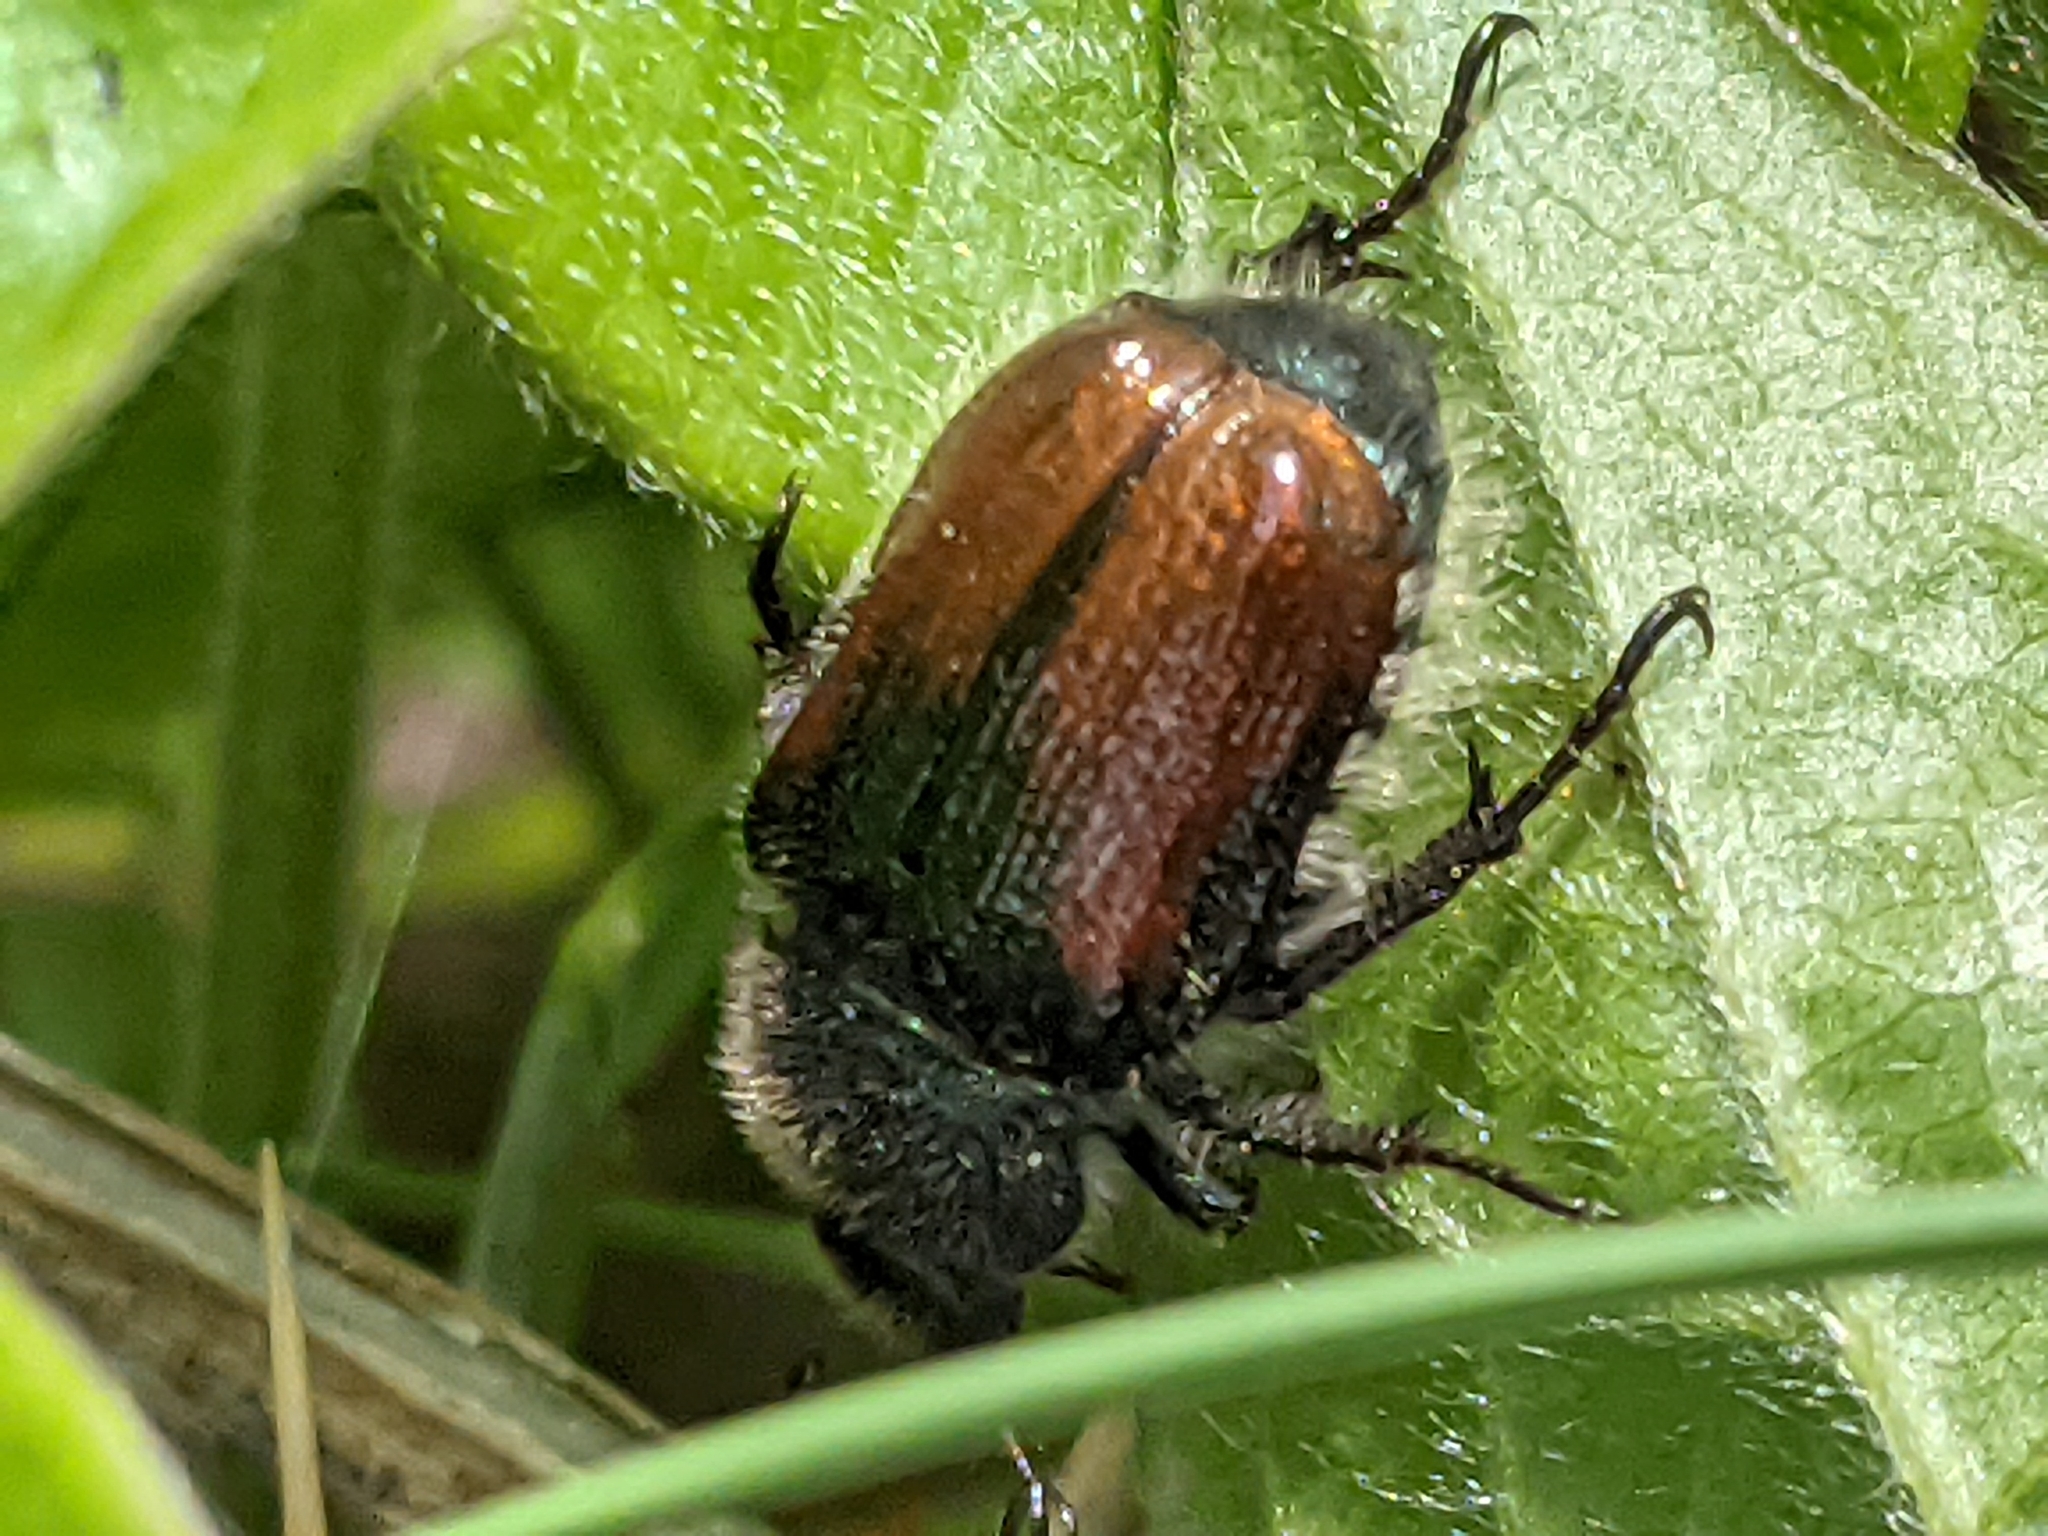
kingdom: Animalia
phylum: Arthropoda
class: Insecta
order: Coleoptera
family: Scarabaeidae
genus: Phyllopertha
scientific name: Phyllopertha horticola
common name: Garden chafer
